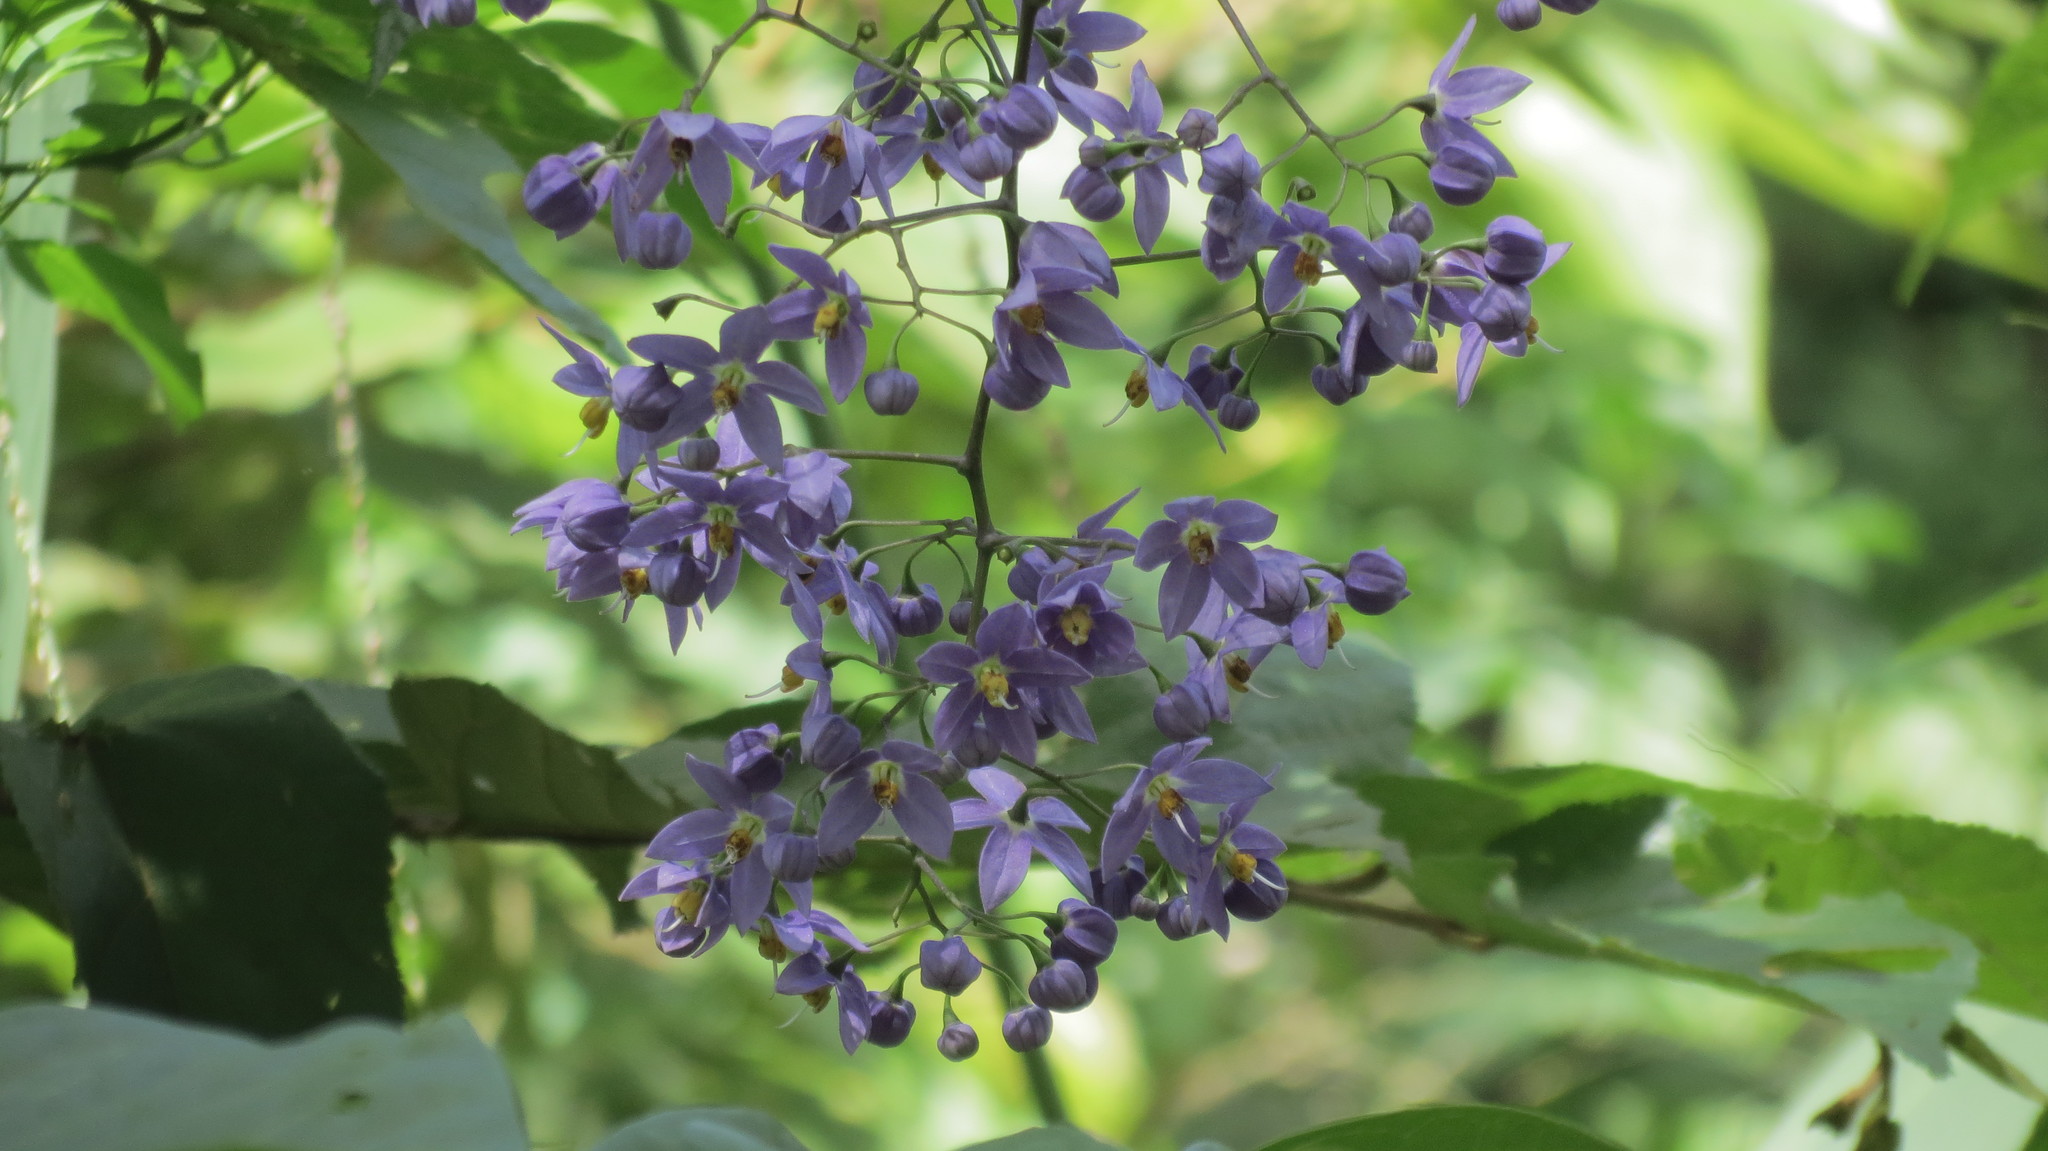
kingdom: Plantae
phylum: Tracheophyta
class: Magnoliopsida
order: Solanales
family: Solanaceae
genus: Solanum
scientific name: Solanum seaforthianum
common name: Brazilian nightshade
